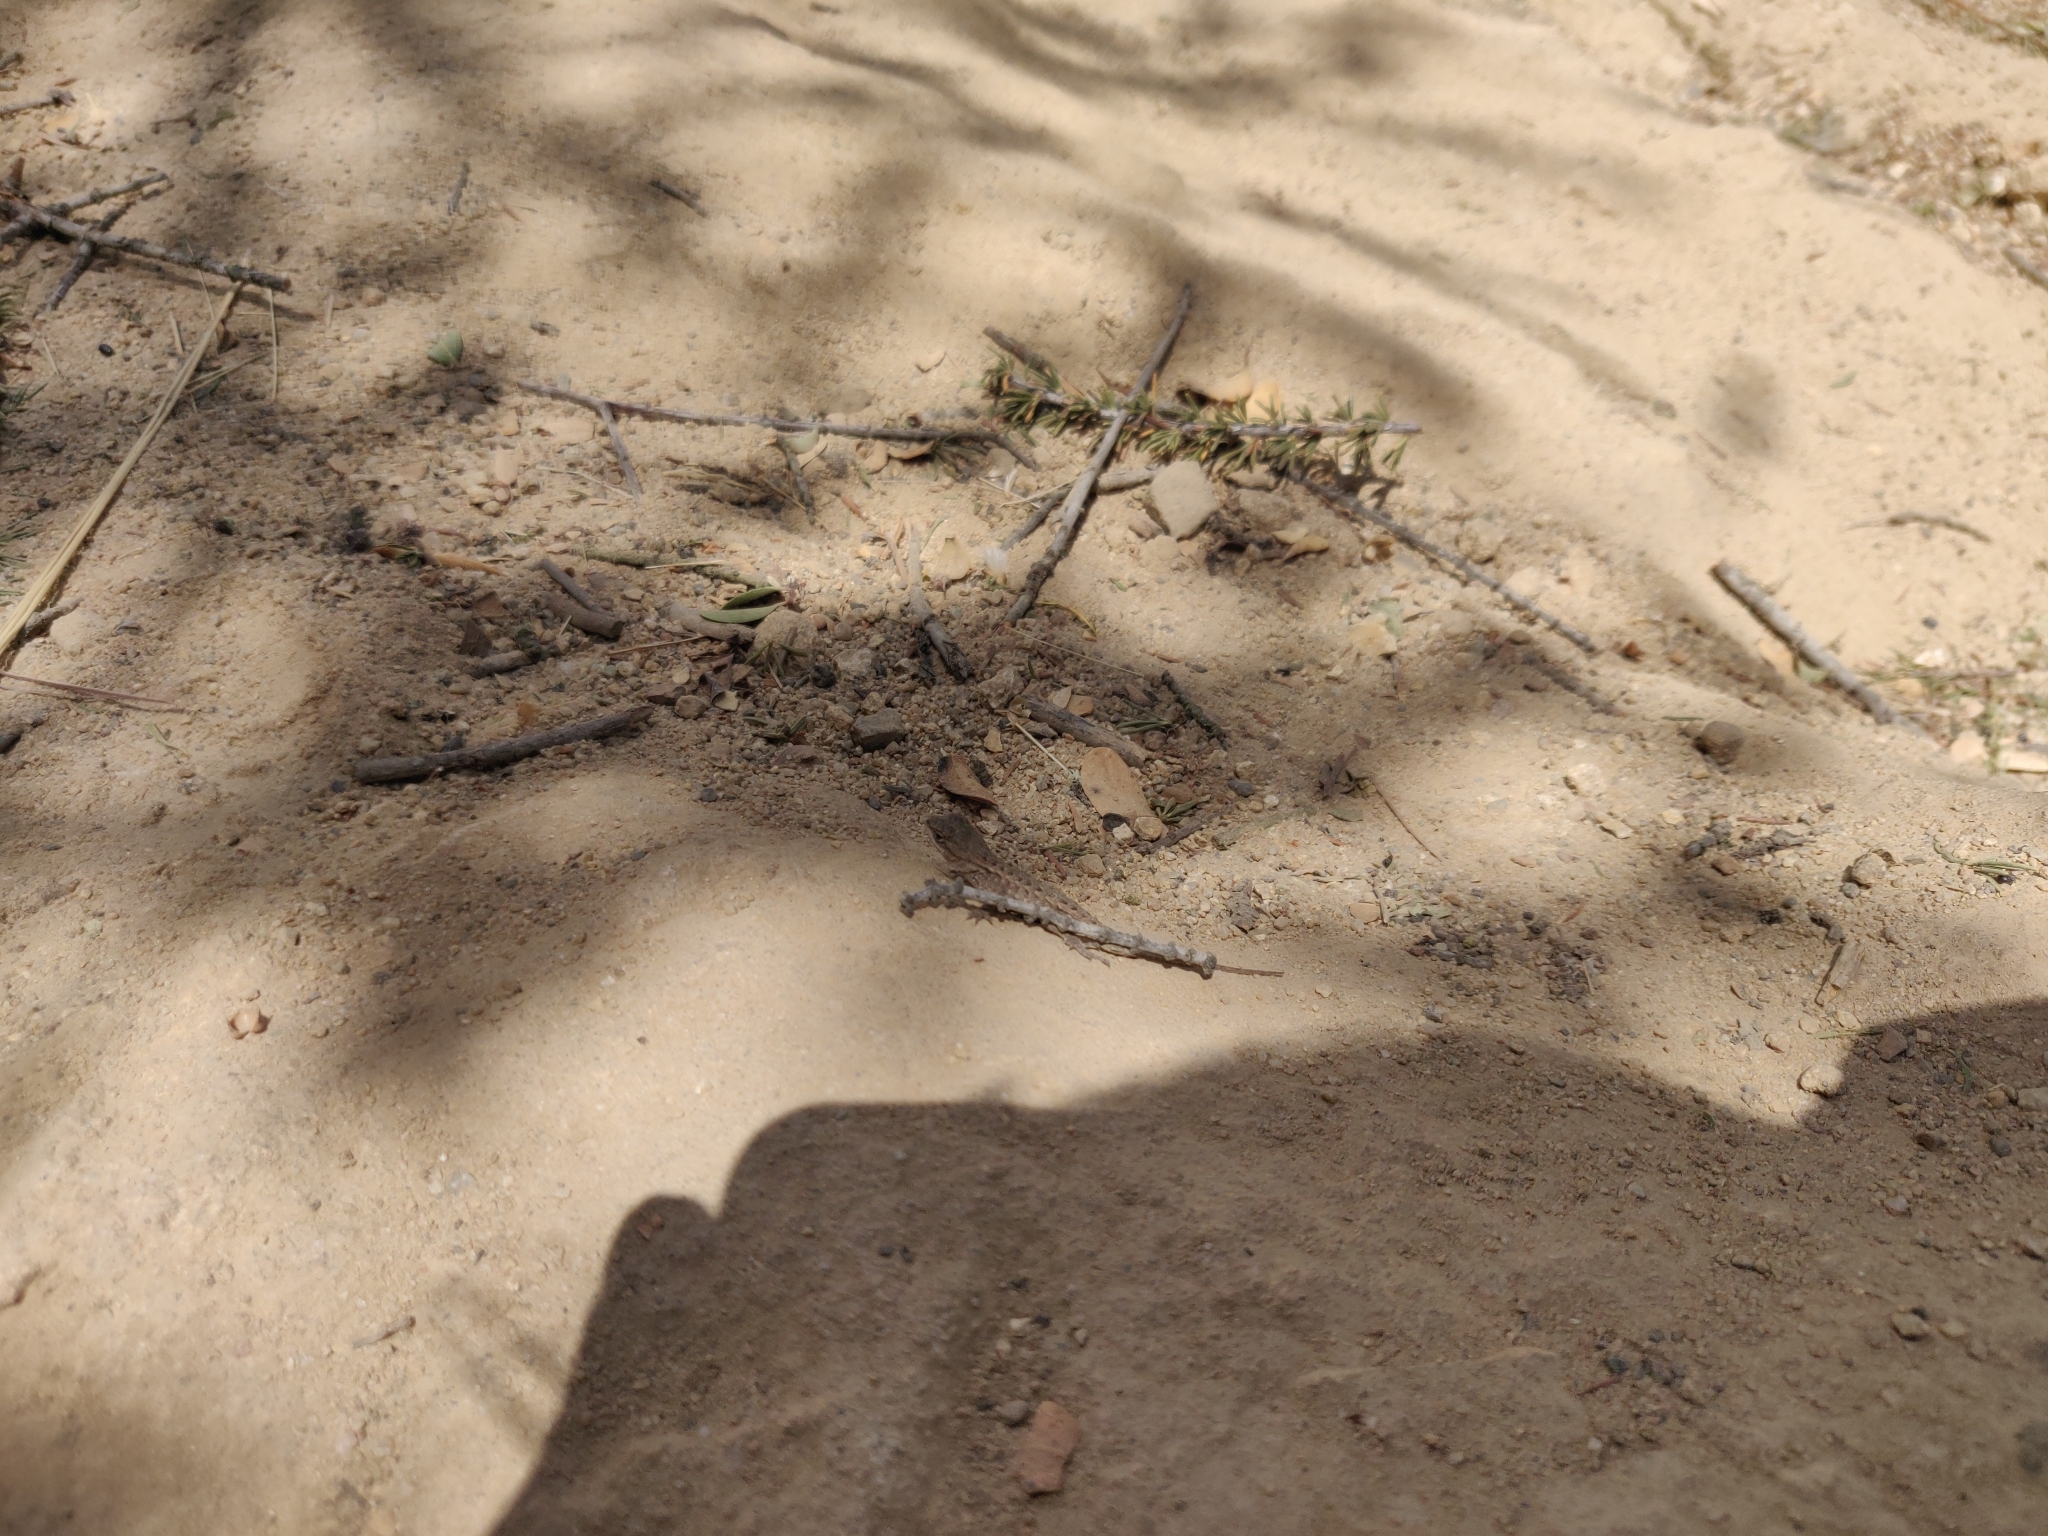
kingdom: Animalia
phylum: Chordata
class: Squamata
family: Phrynosomatidae
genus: Sceloporus
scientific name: Sceloporus occidentalis
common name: Western fence lizard
